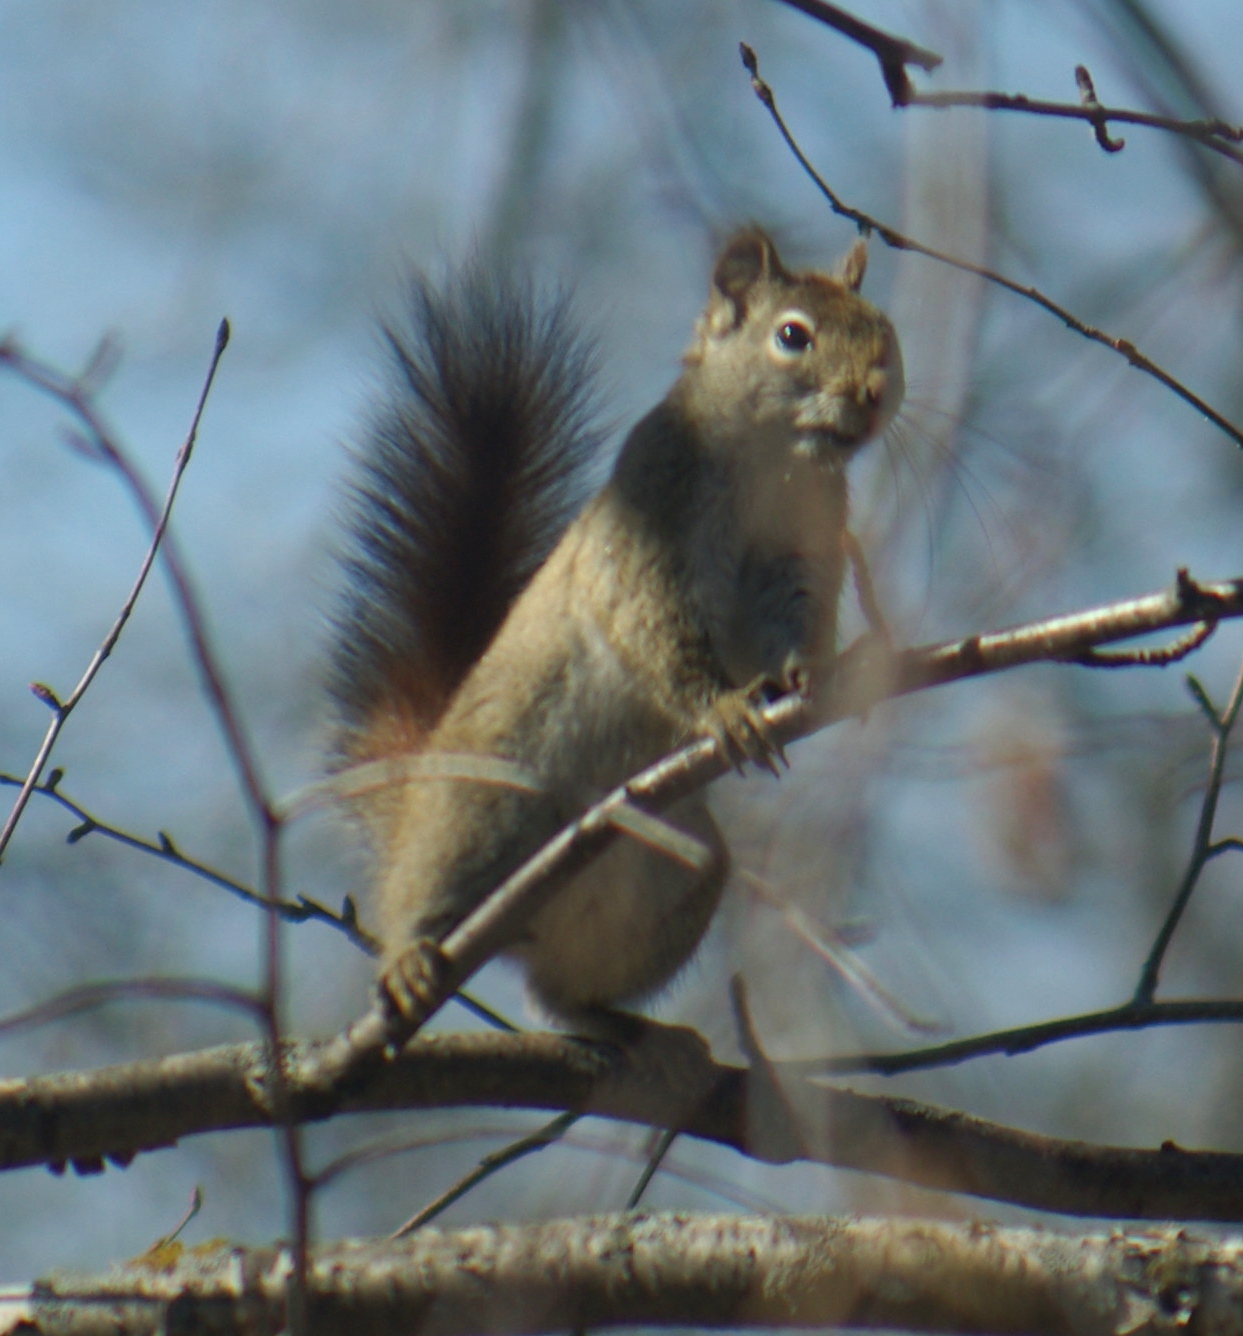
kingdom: Animalia
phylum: Chordata
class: Mammalia
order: Rodentia
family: Sciuridae
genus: Tamiasciurus
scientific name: Tamiasciurus hudsonicus
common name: Red squirrel
